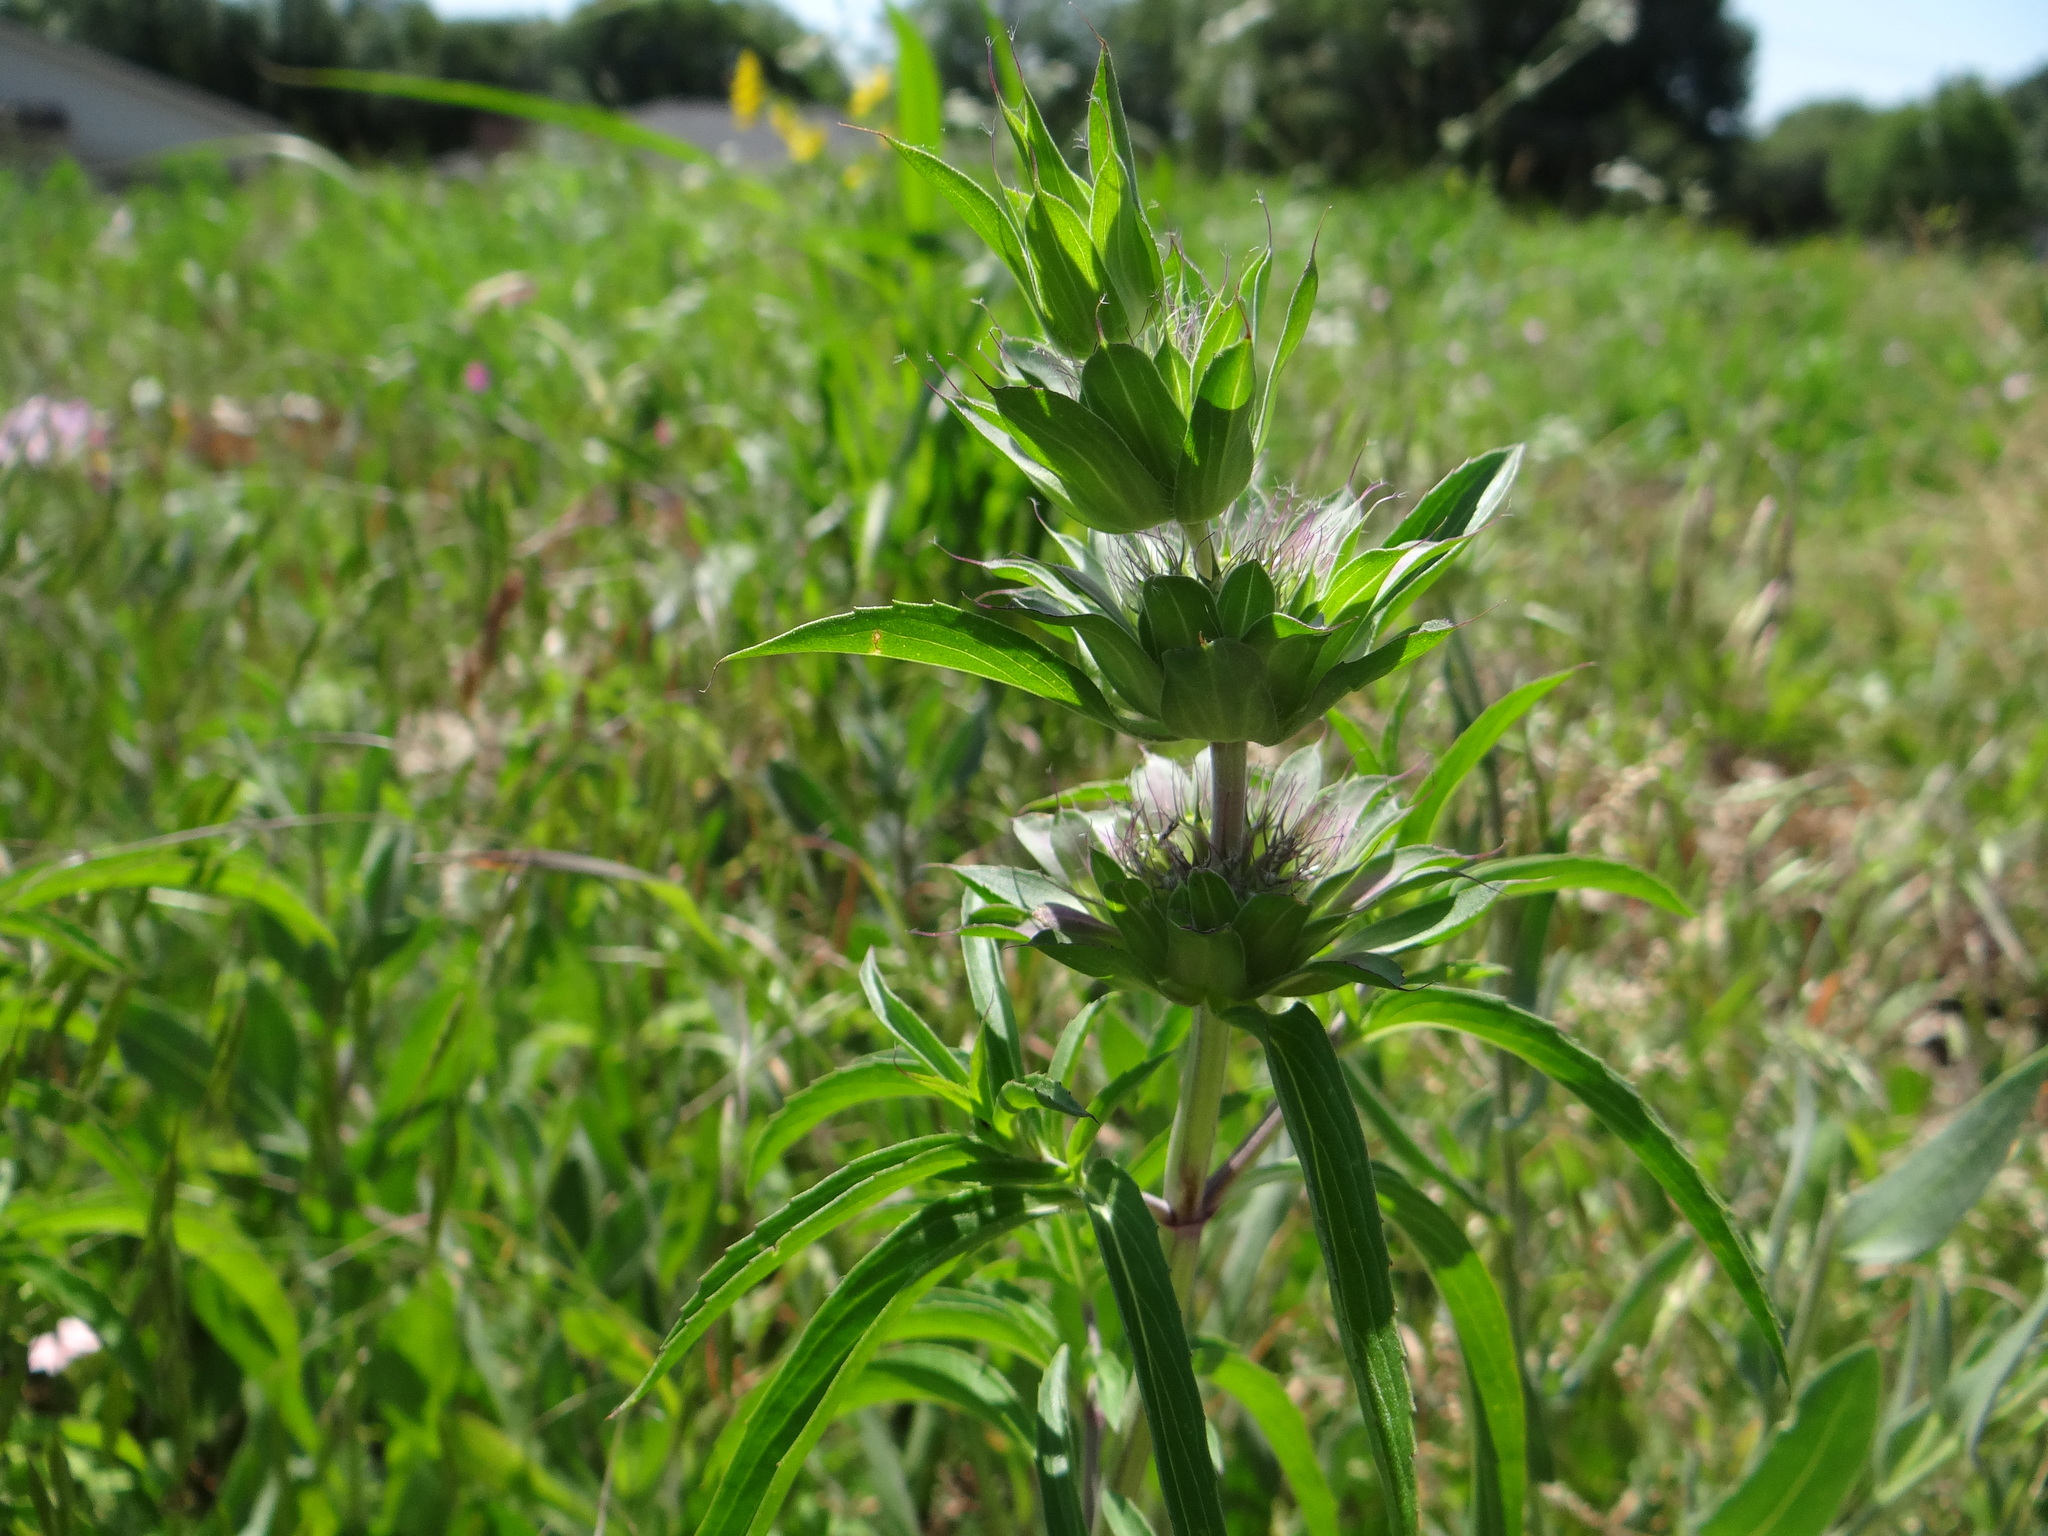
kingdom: Plantae
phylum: Tracheophyta
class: Magnoliopsida
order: Lamiales
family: Lamiaceae
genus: Monarda
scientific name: Monarda citriodora
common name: Lemon beebalm
